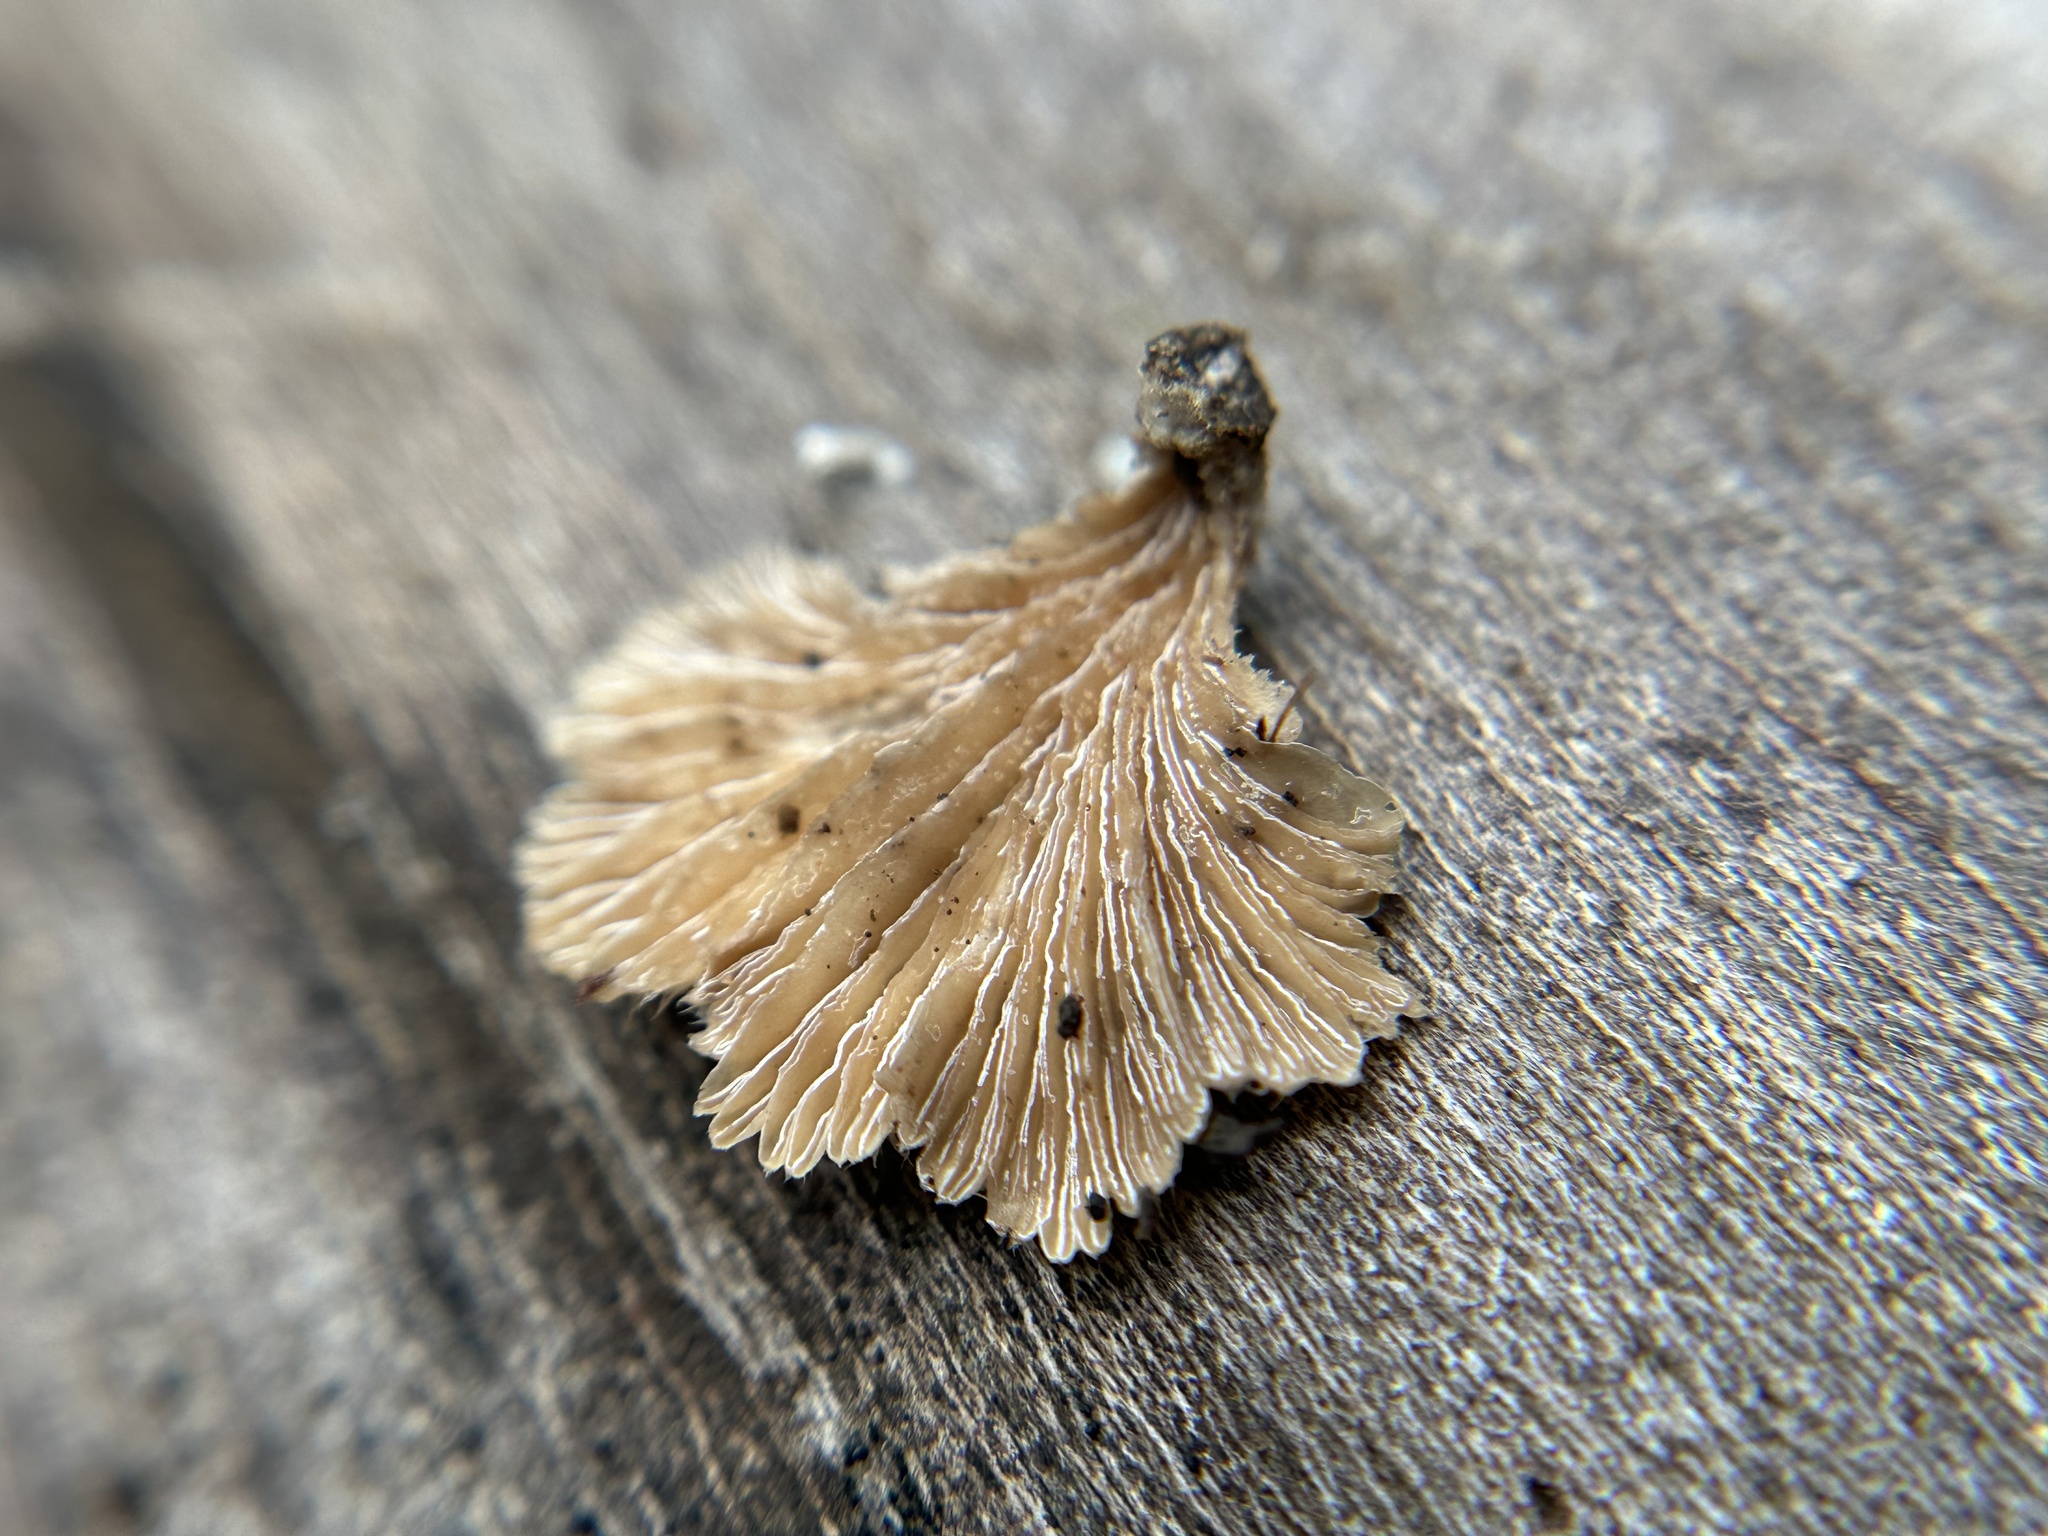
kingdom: Fungi
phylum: Basidiomycota
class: Agaricomycetes
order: Agaricales
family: Schizophyllaceae
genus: Schizophyllum
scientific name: Schizophyllum commune
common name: Common porecrust
